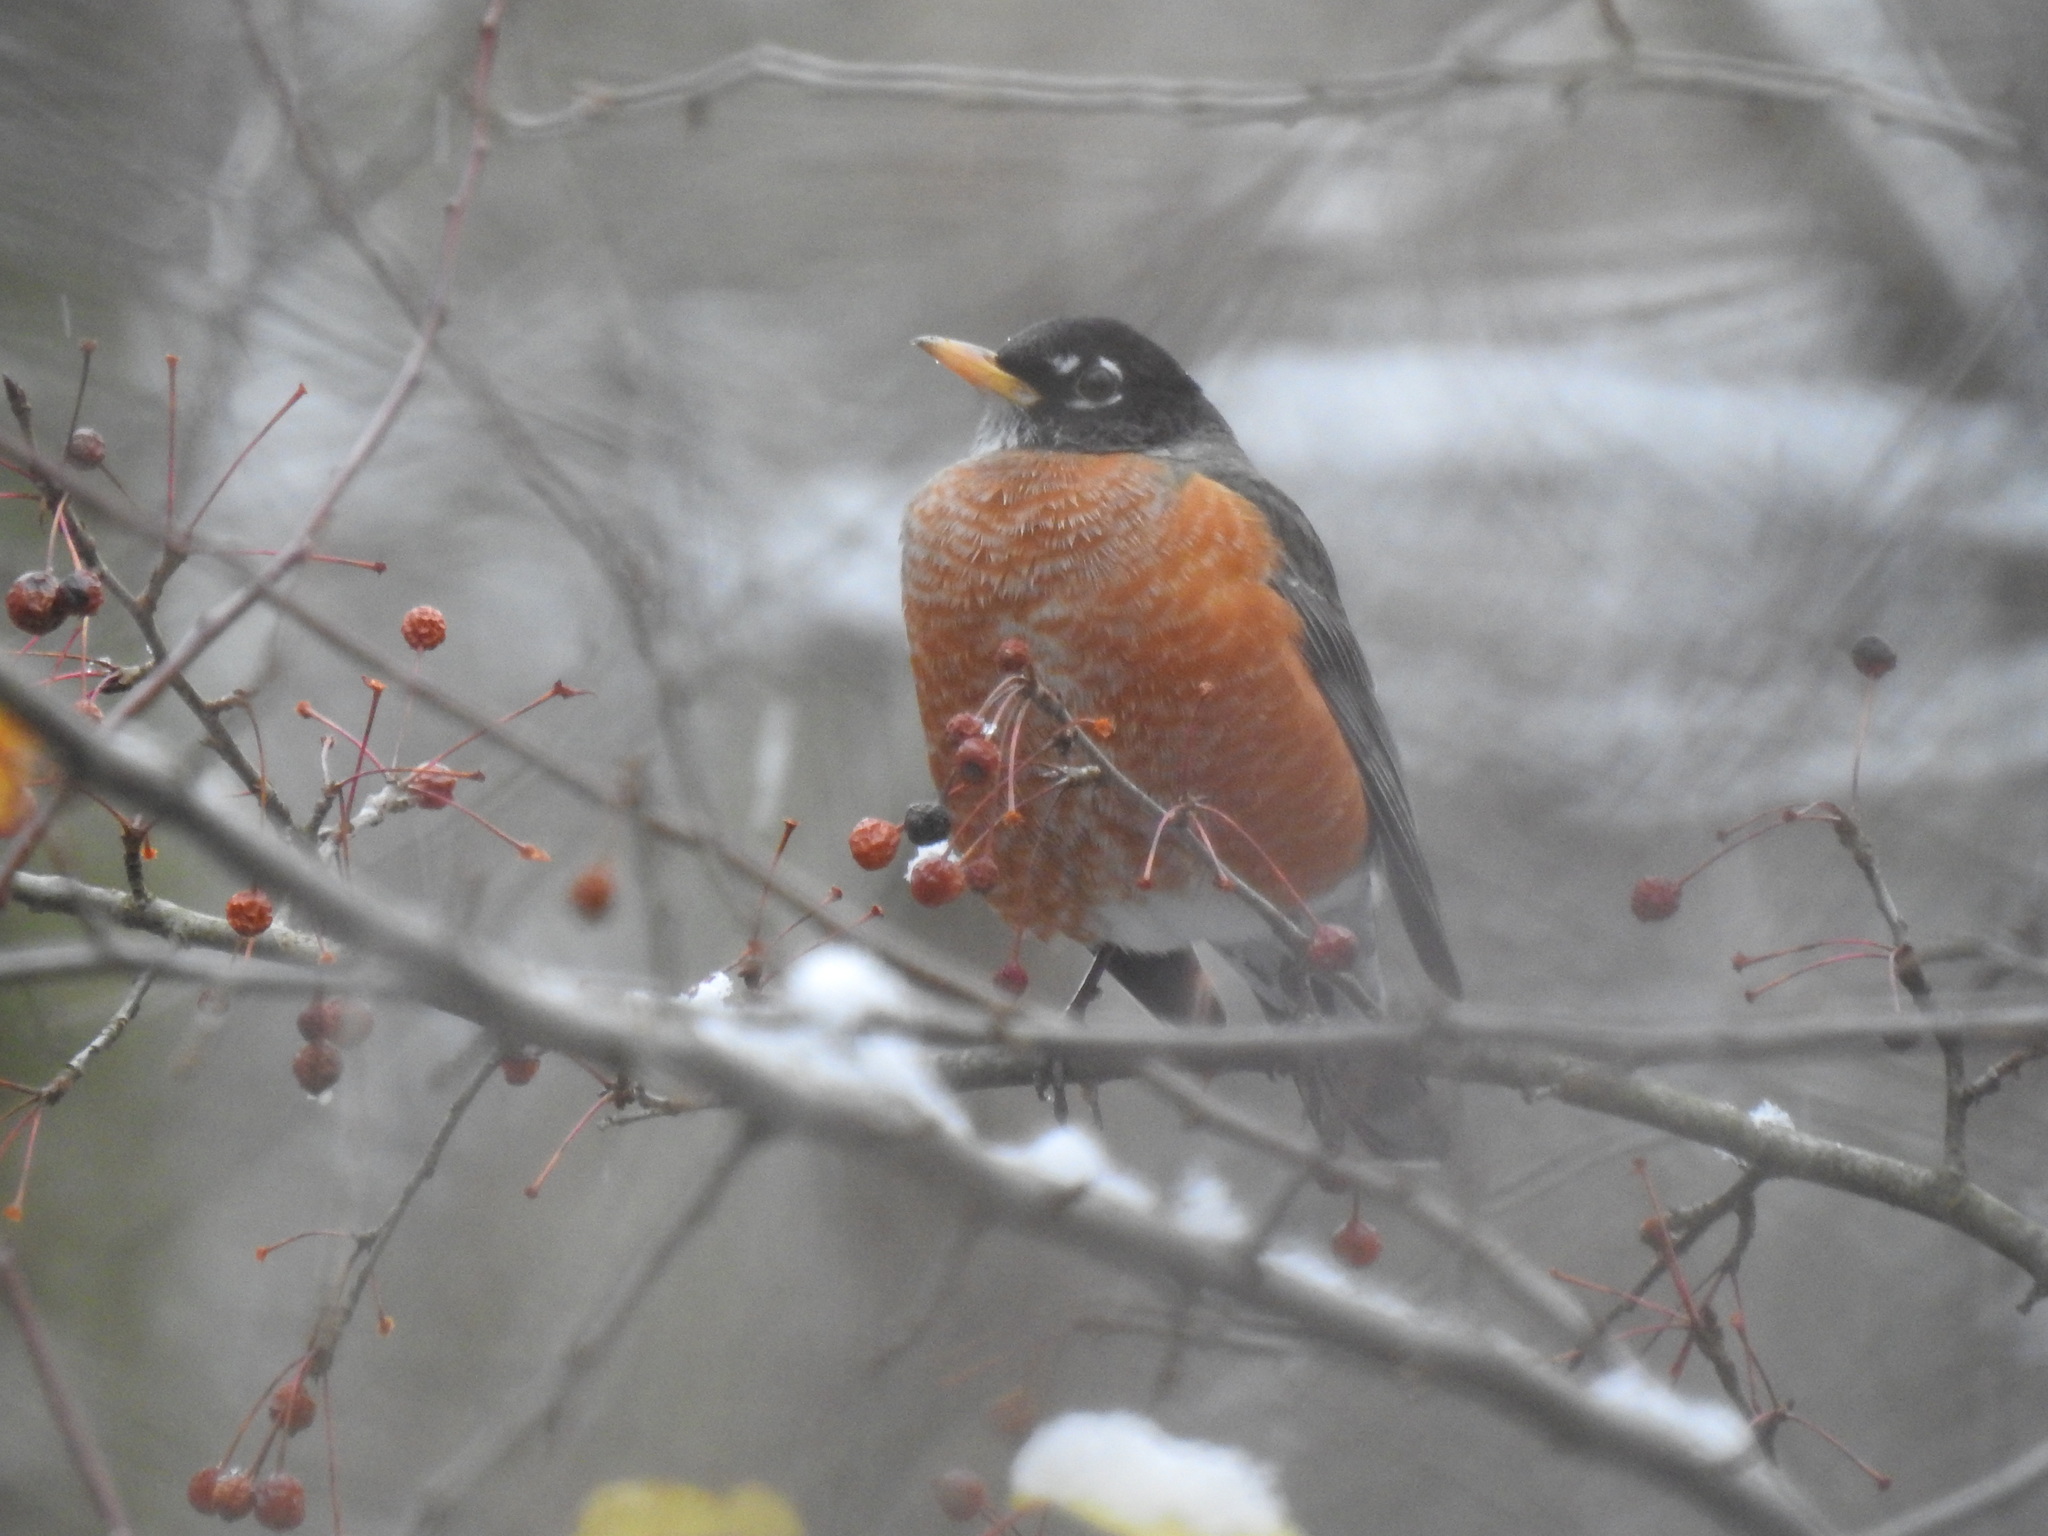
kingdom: Animalia
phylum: Chordata
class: Aves
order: Passeriformes
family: Turdidae
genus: Turdus
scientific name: Turdus migratorius
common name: American robin
